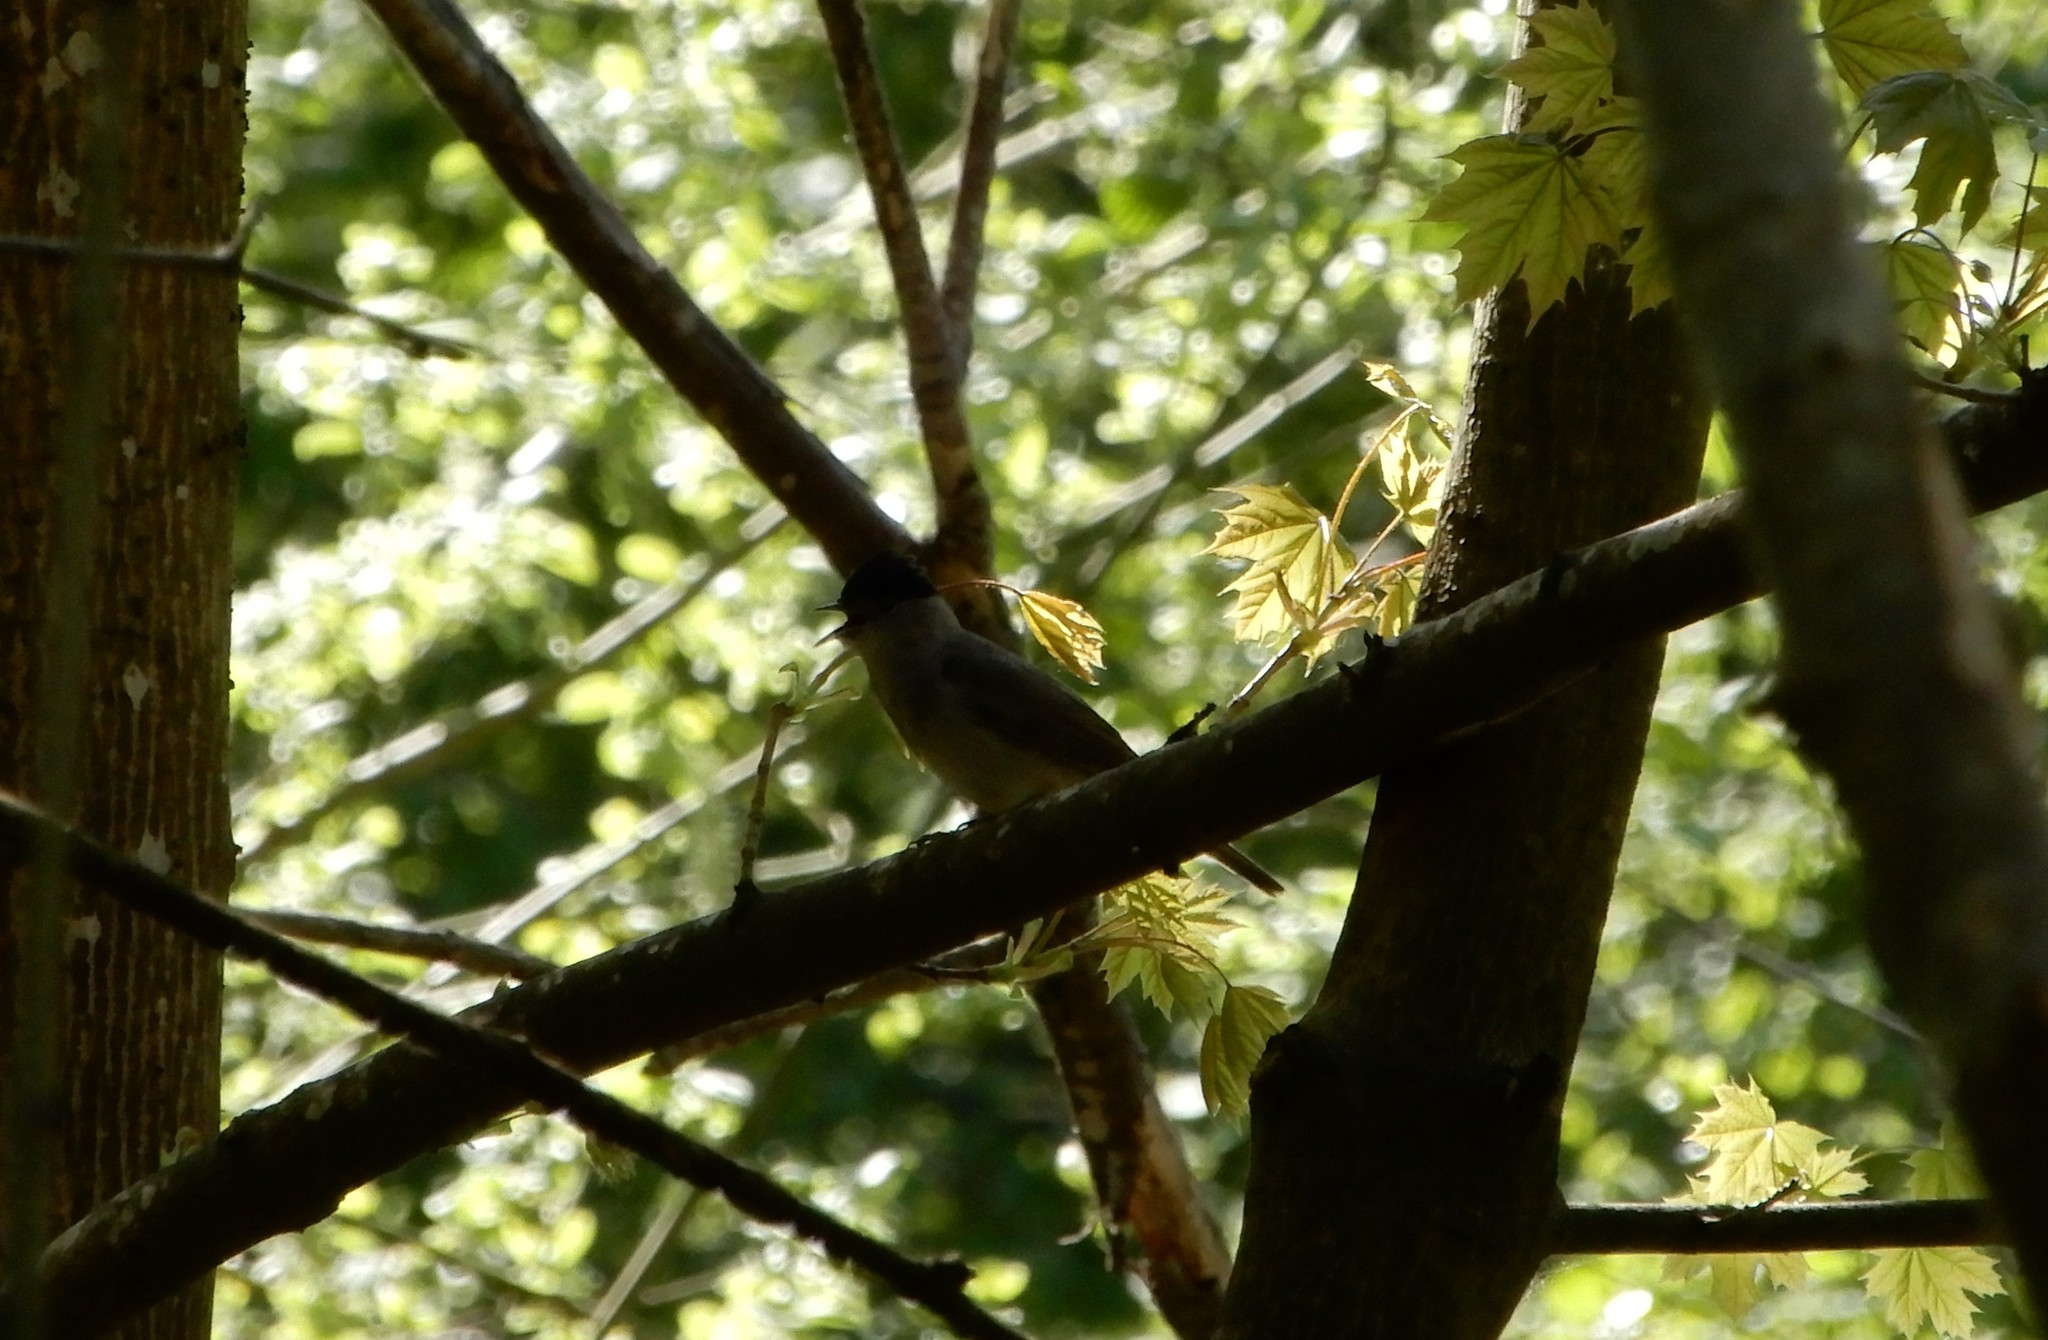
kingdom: Animalia
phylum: Chordata
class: Aves
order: Passeriformes
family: Sylviidae
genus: Sylvia
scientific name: Sylvia atricapilla
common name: Eurasian blackcap
